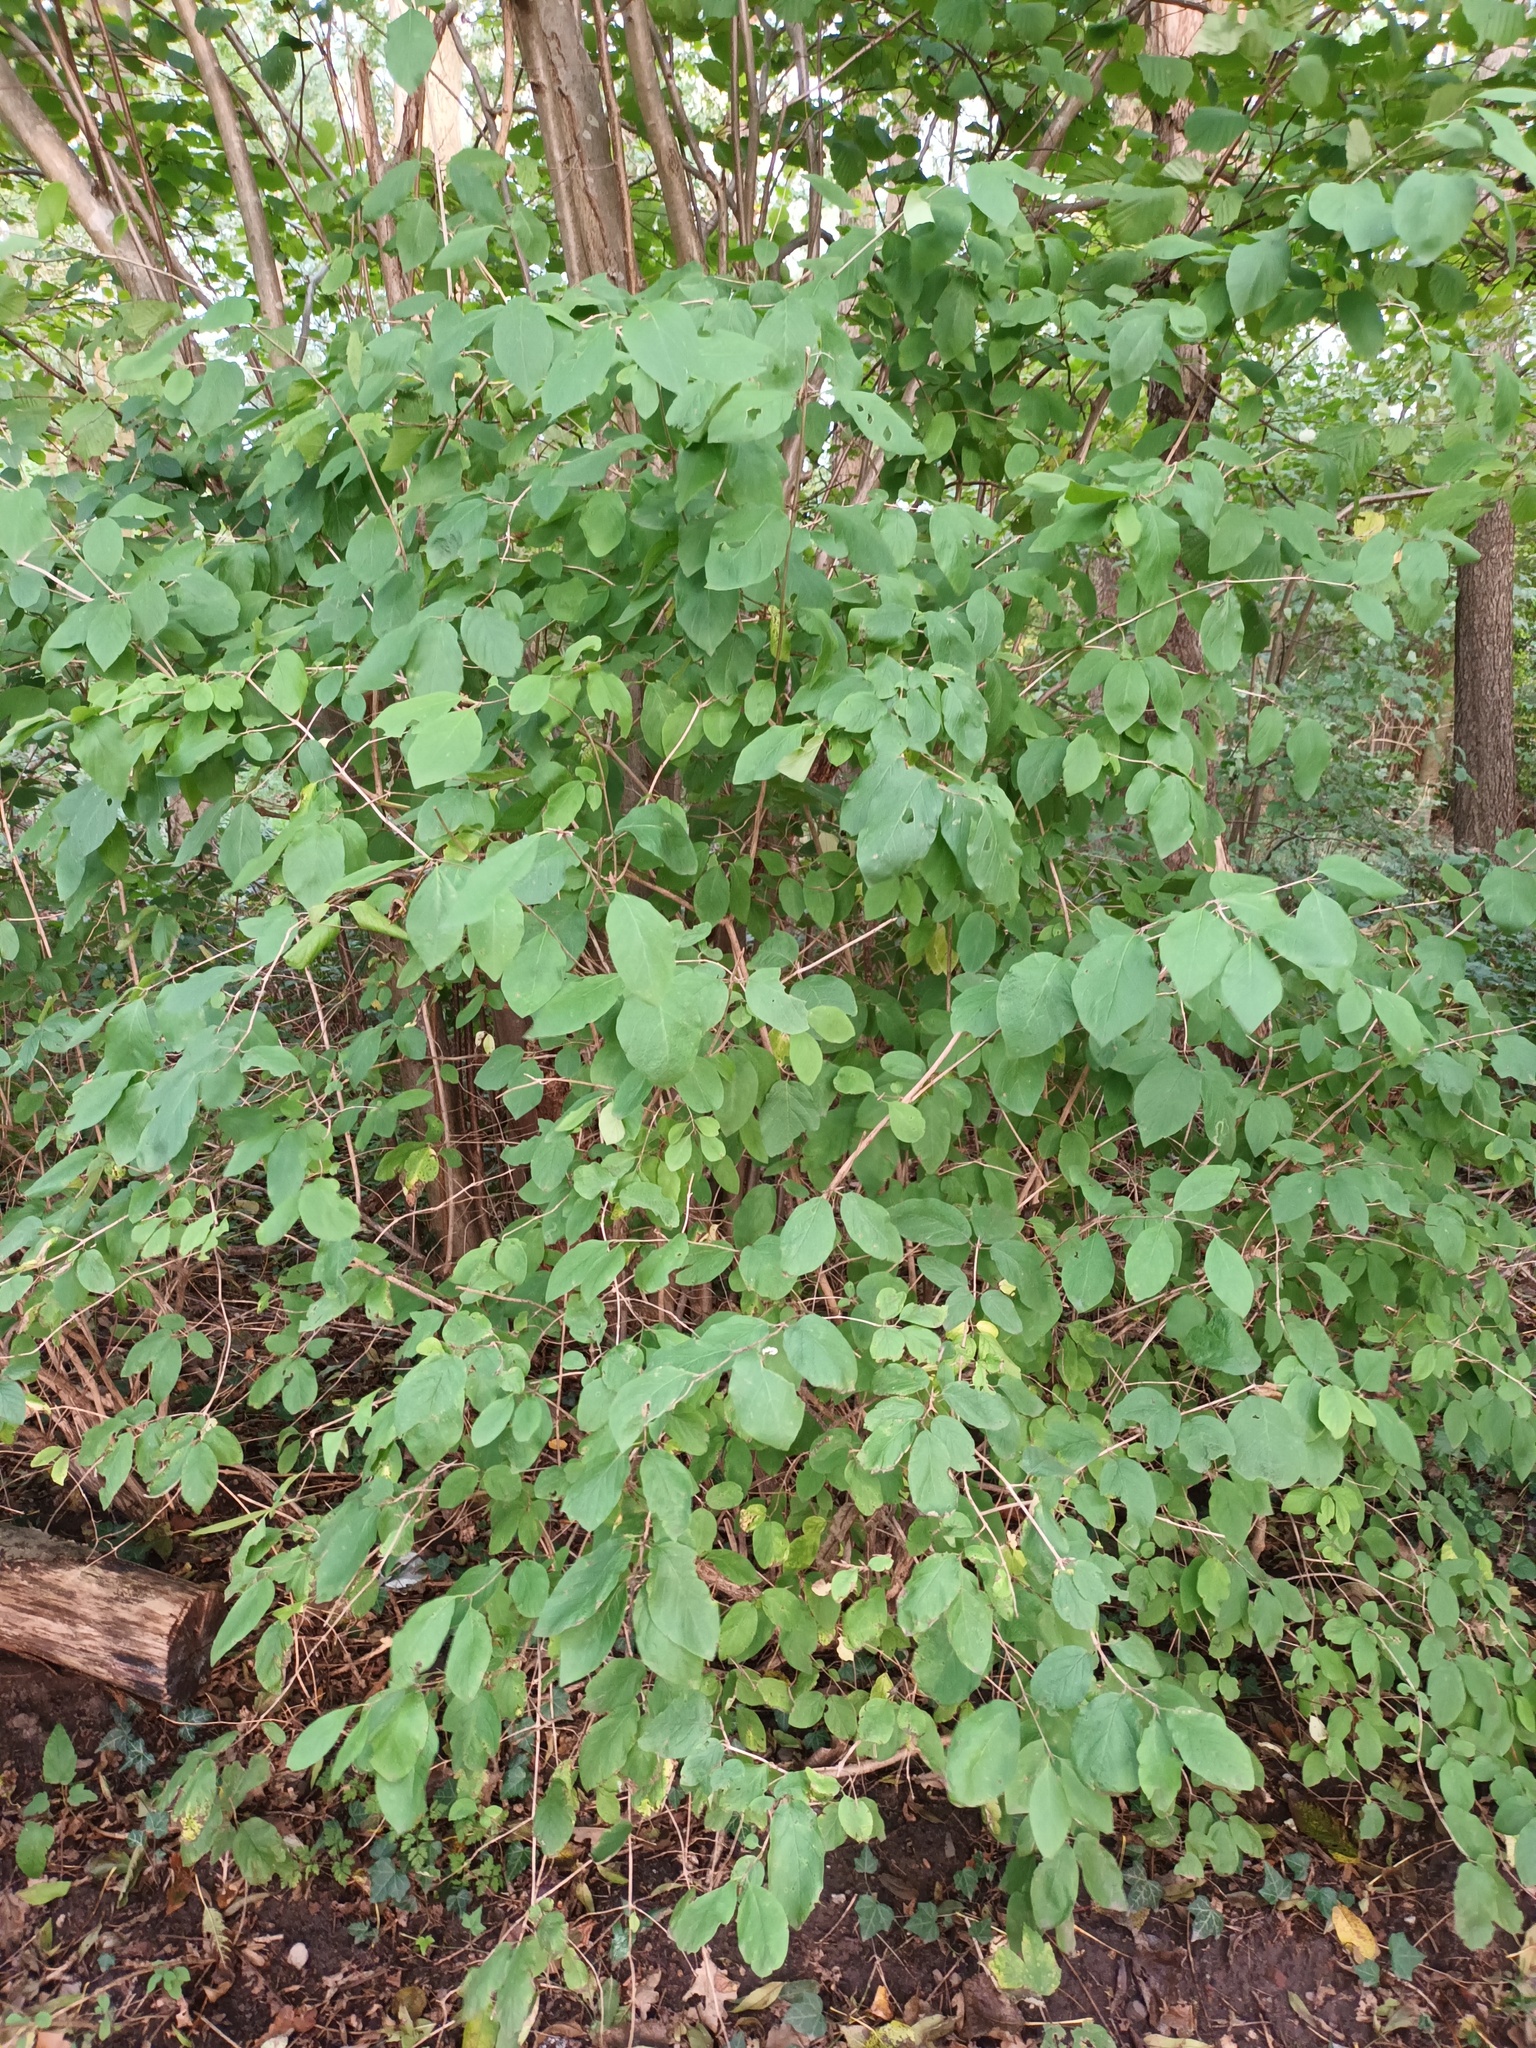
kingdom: Plantae
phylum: Tracheophyta
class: Magnoliopsida
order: Dipsacales
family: Caprifoliaceae
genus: Lonicera
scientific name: Lonicera xylosteum
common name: Fly honeysuckle
